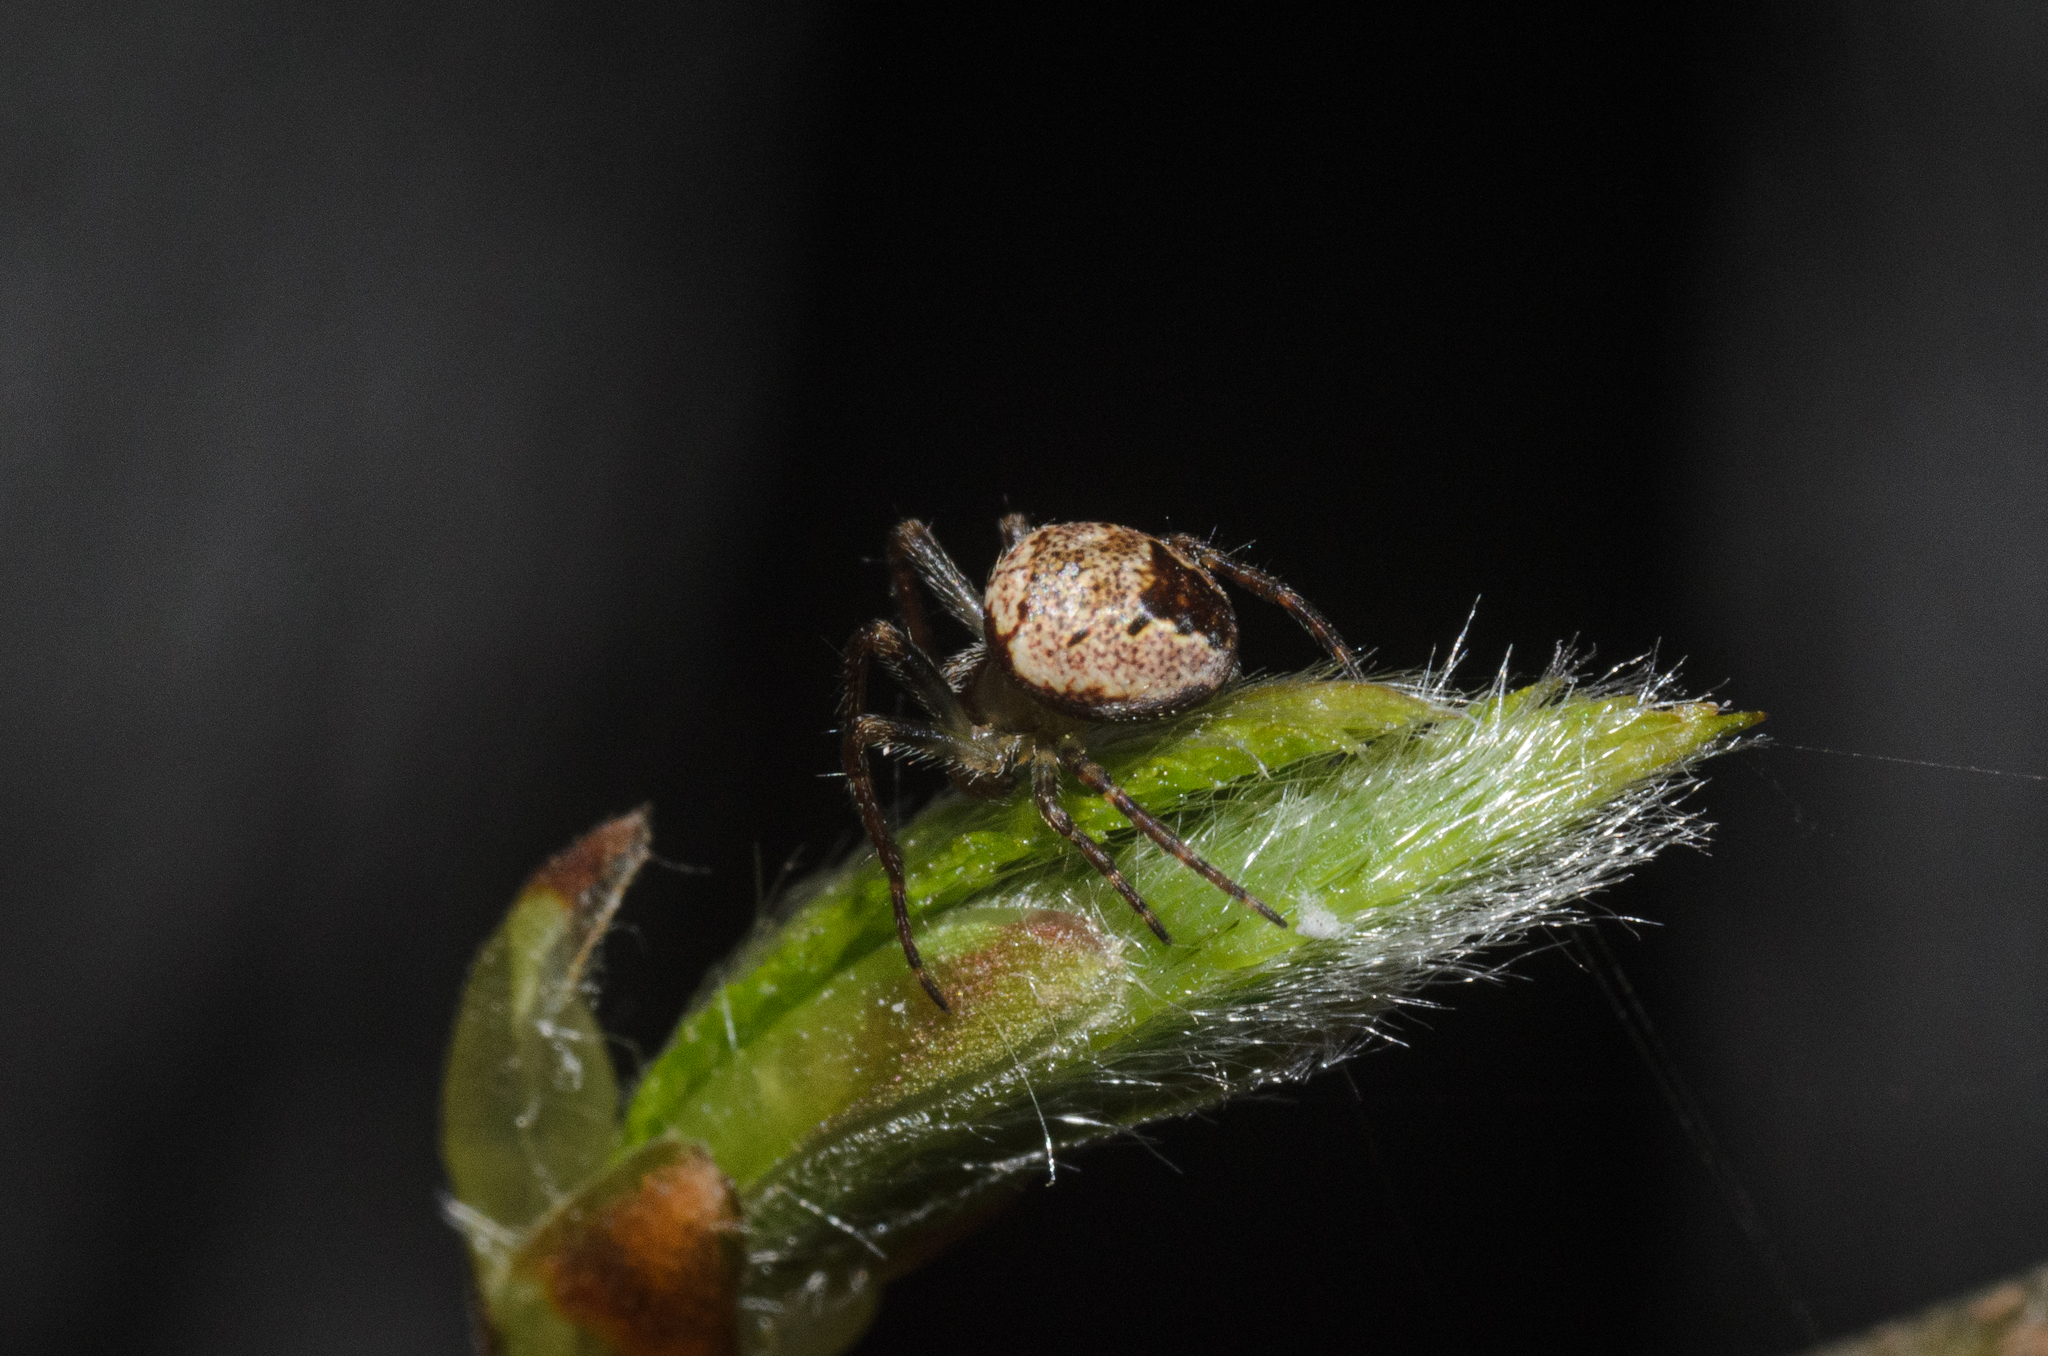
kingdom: Animalia
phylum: Arthropoda
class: Arachnida
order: Araneae
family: Araneidae
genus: Zilla
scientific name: Zilla diodia
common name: Zilla diodia
